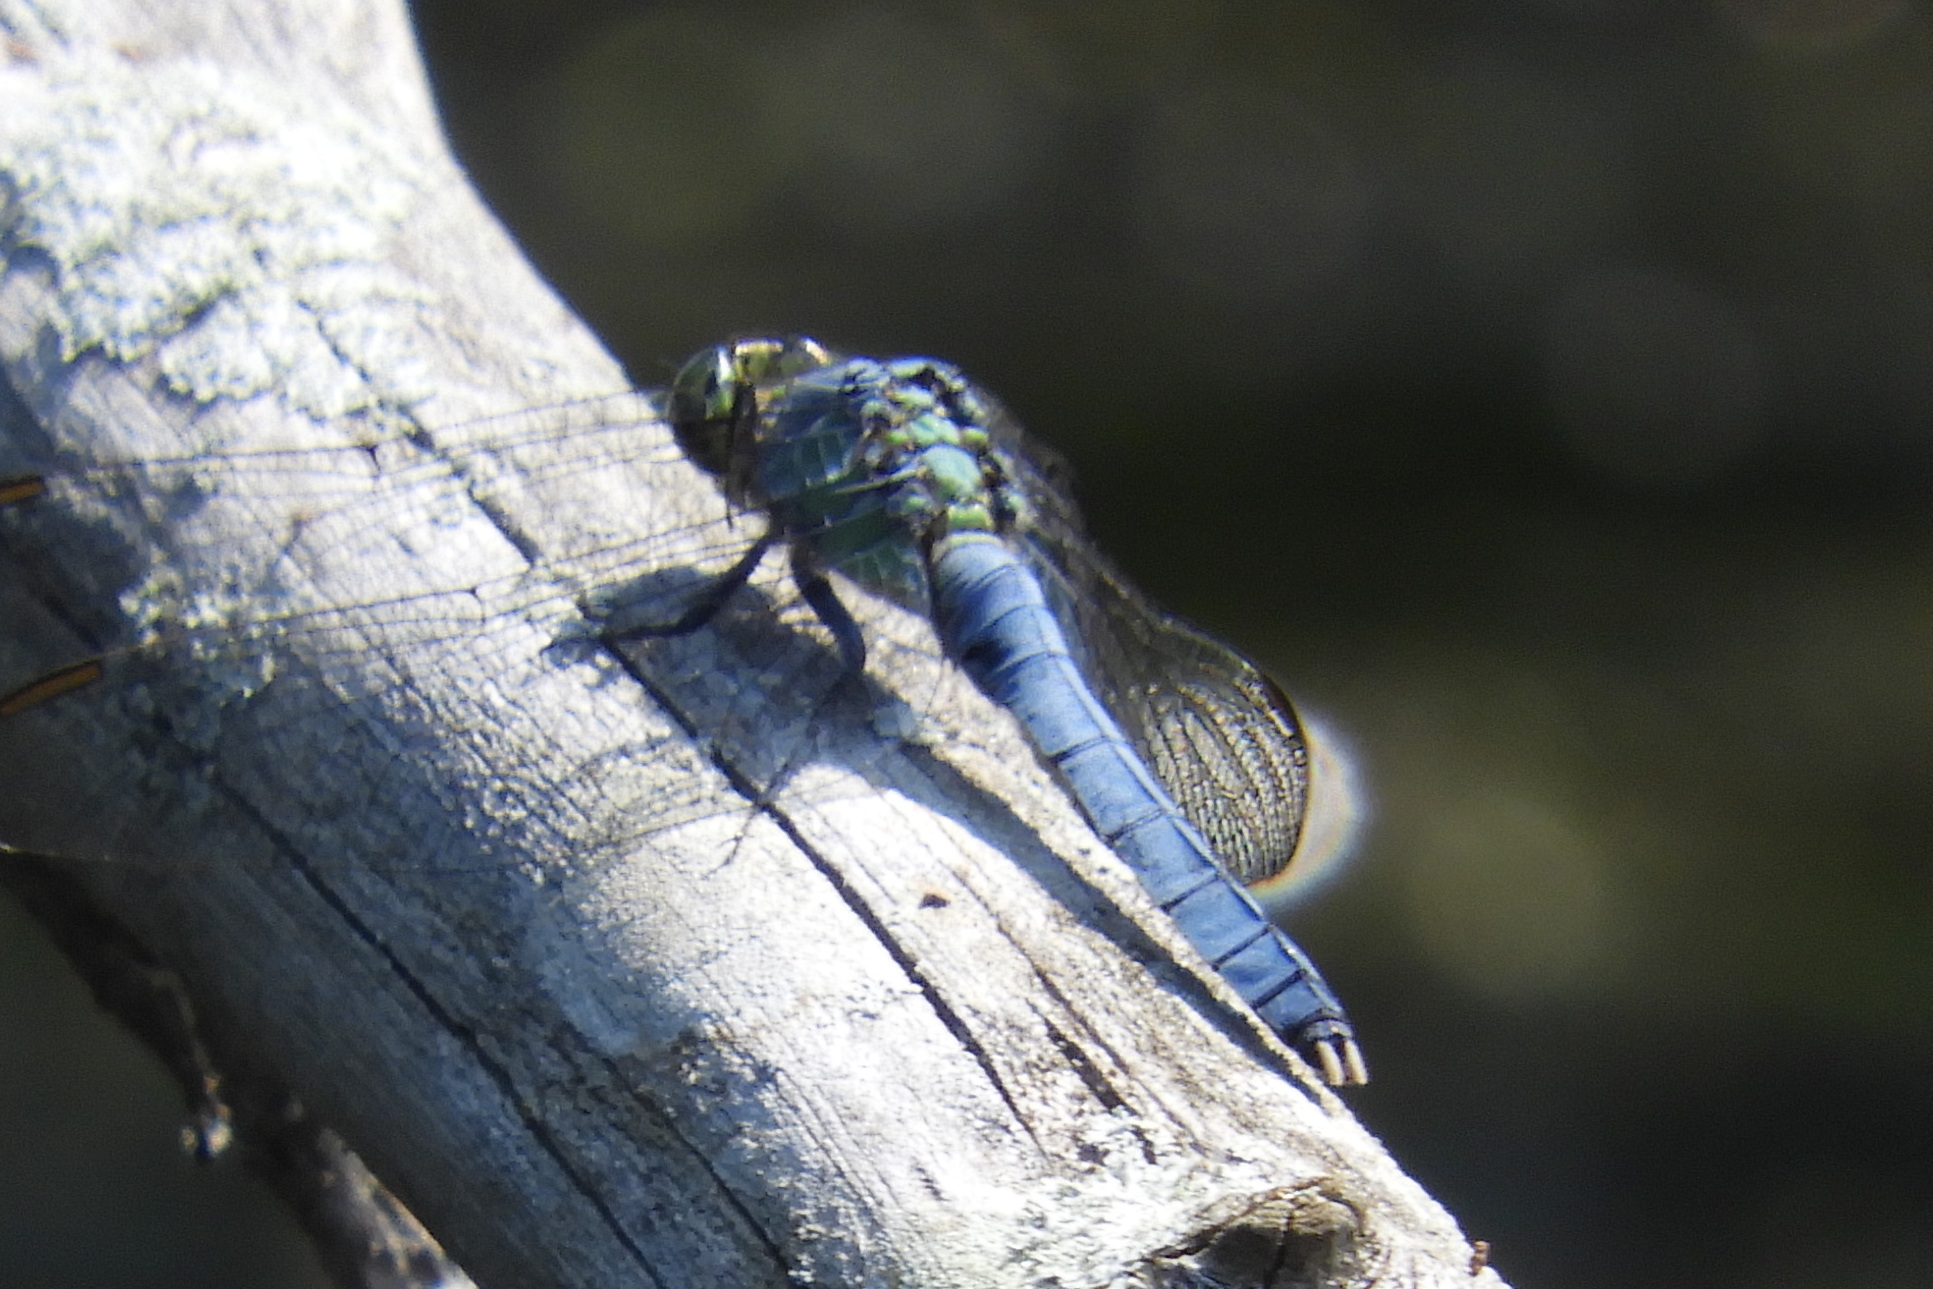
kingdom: Animalia
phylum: Arthropoda
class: Insecta
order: Odonata
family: Libellulidae
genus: Erythemis
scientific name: Erythemis simplicicollis
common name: Eastern pondhawk
